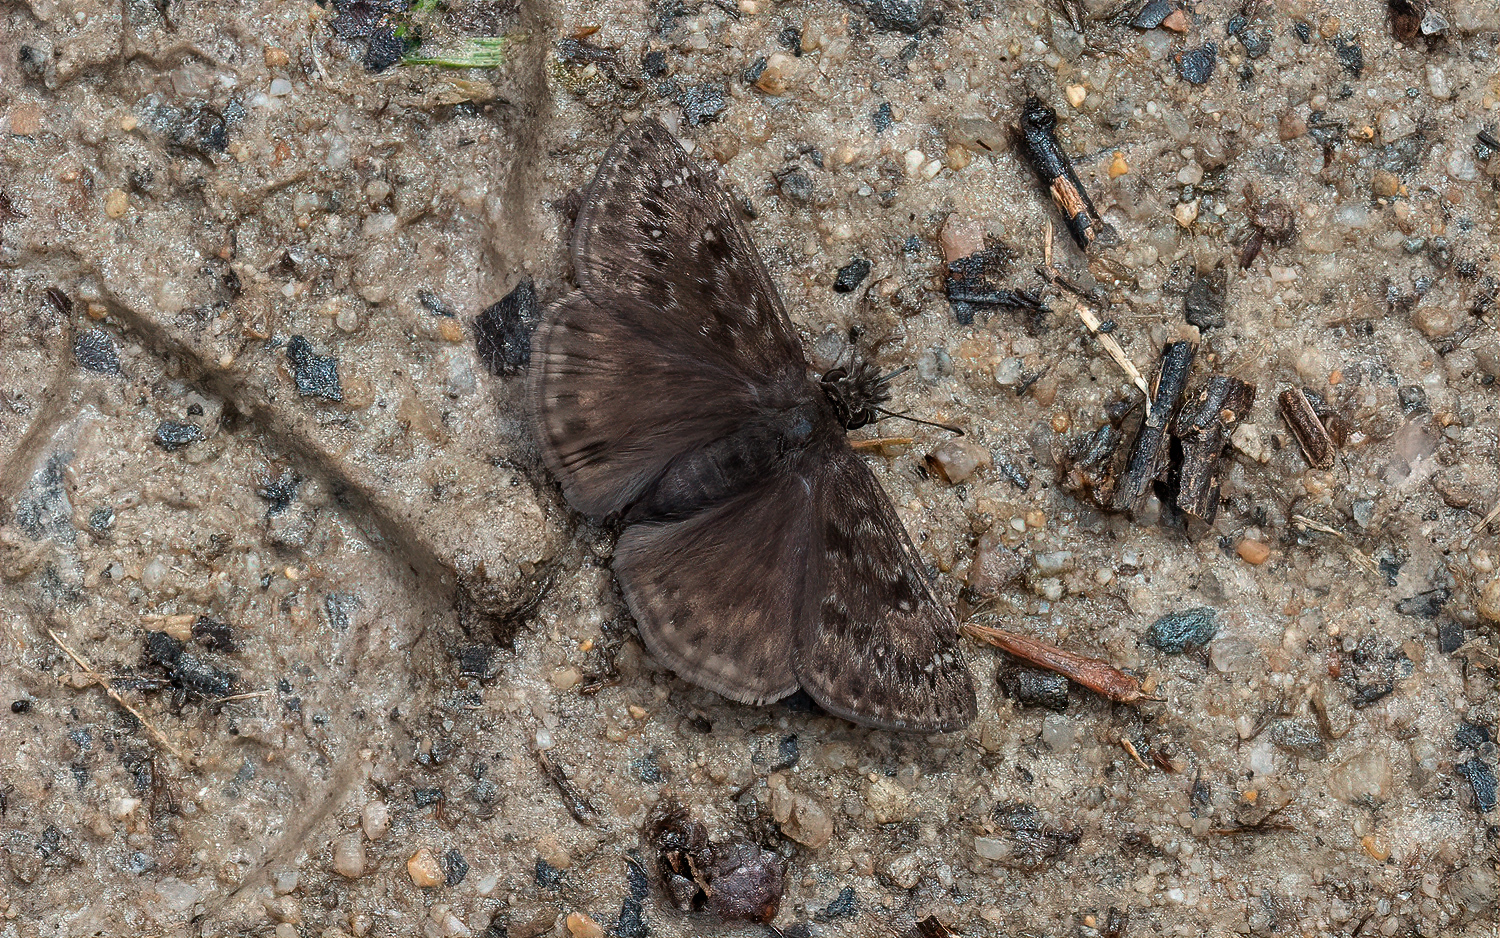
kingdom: Animalia
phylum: Arthropoda
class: Insecta
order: Lepidoptera
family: Hesperiidae
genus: Erynnis
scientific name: Erynnis juvenalis
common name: Juvenal's duskywing
